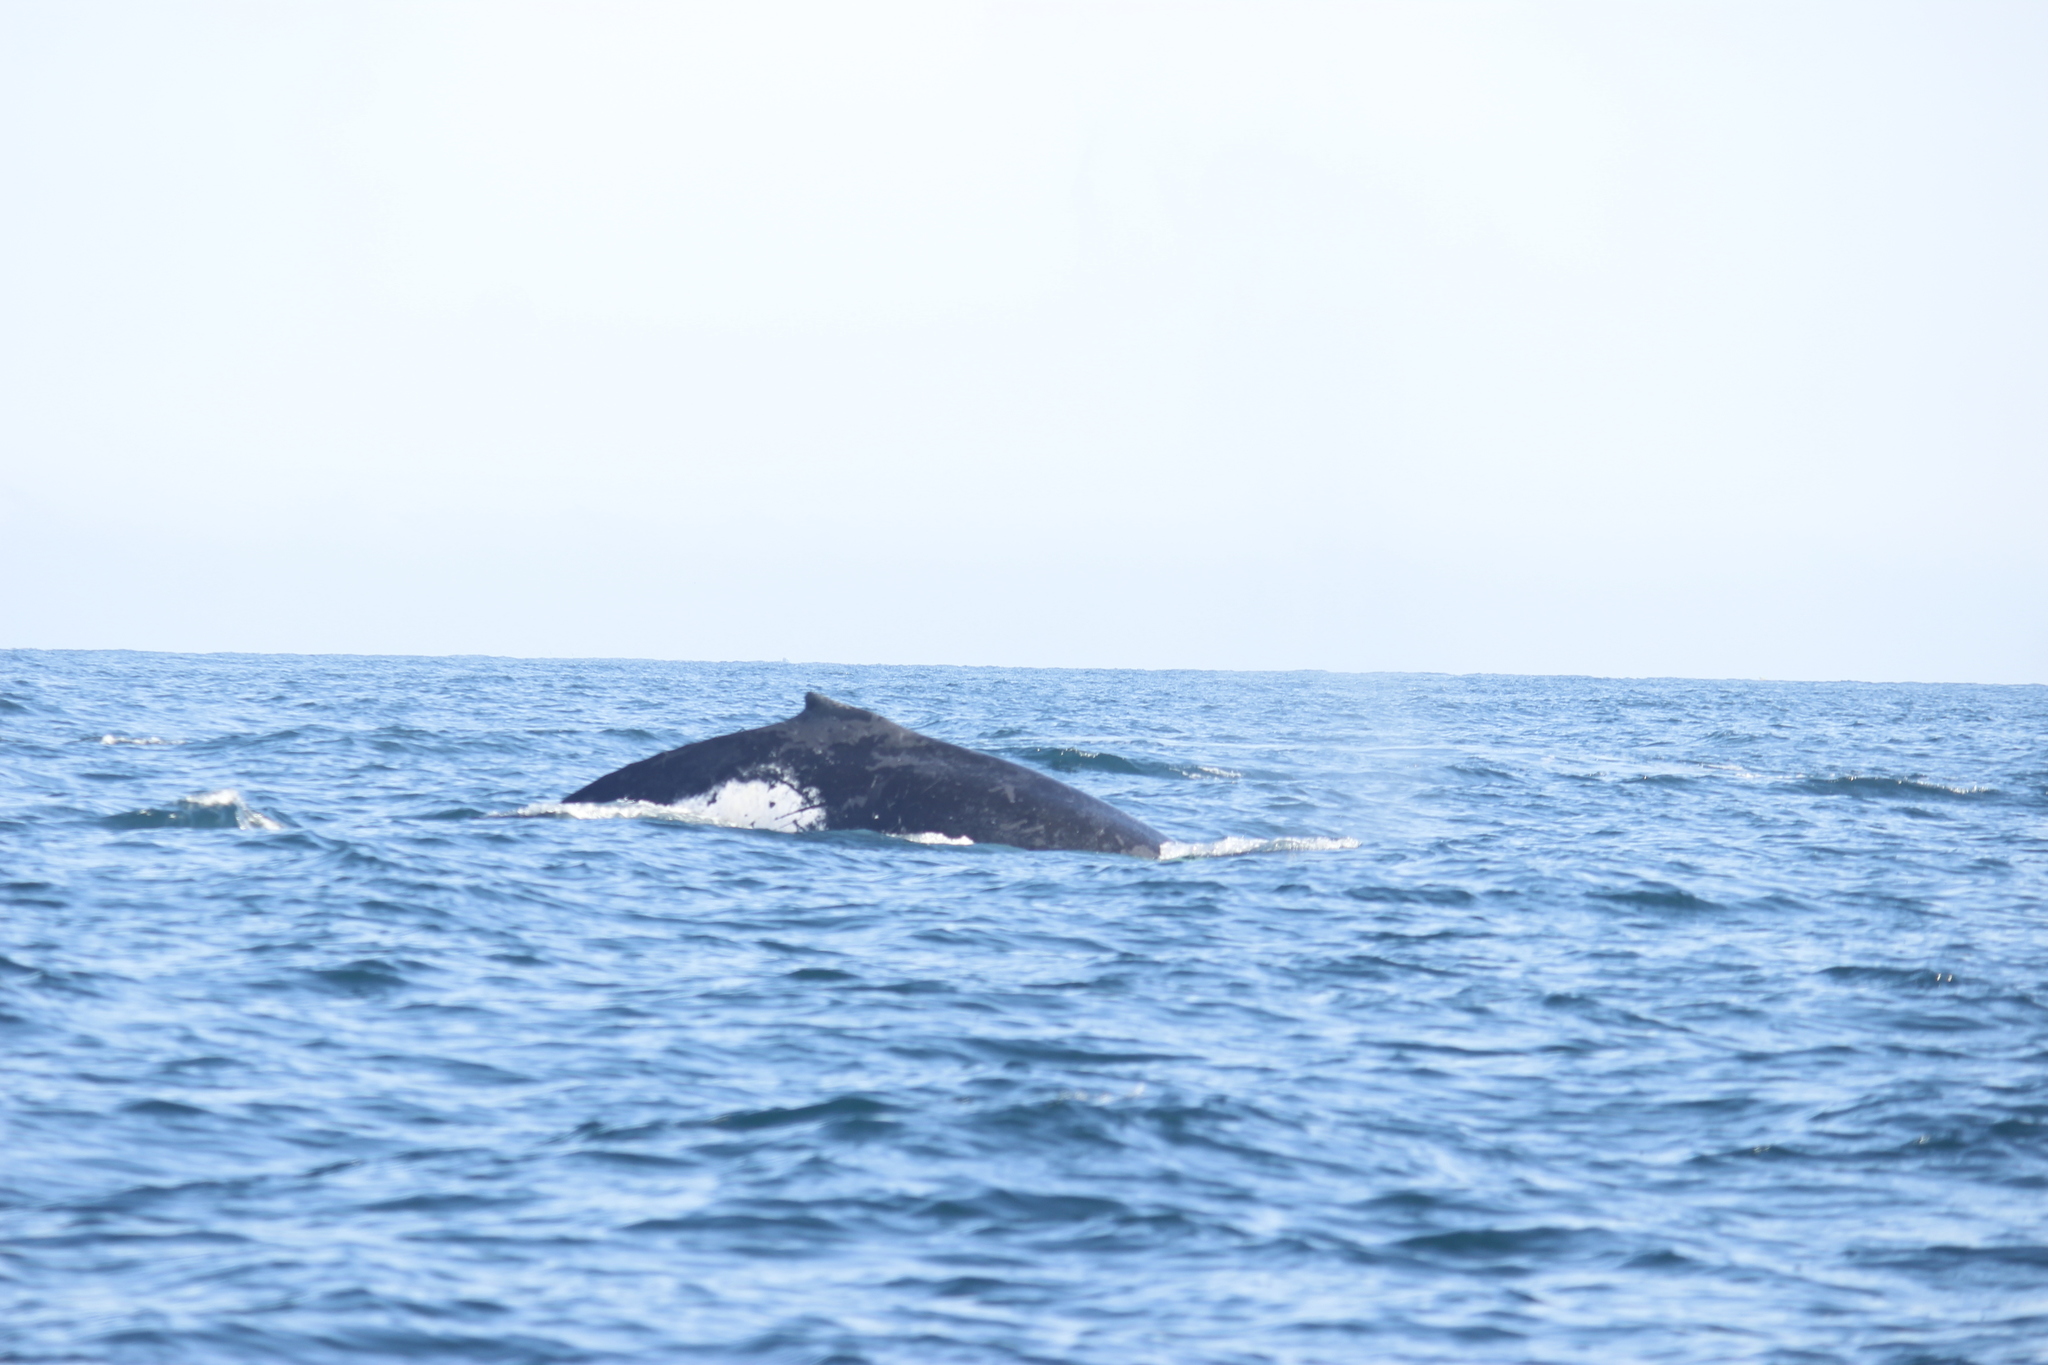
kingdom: Animalia
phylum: Chordata
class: Mammalia
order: Cetacea
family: Balaenopteridae
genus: Megaptera
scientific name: Megaptera novaeangliae
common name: Humpback whale
